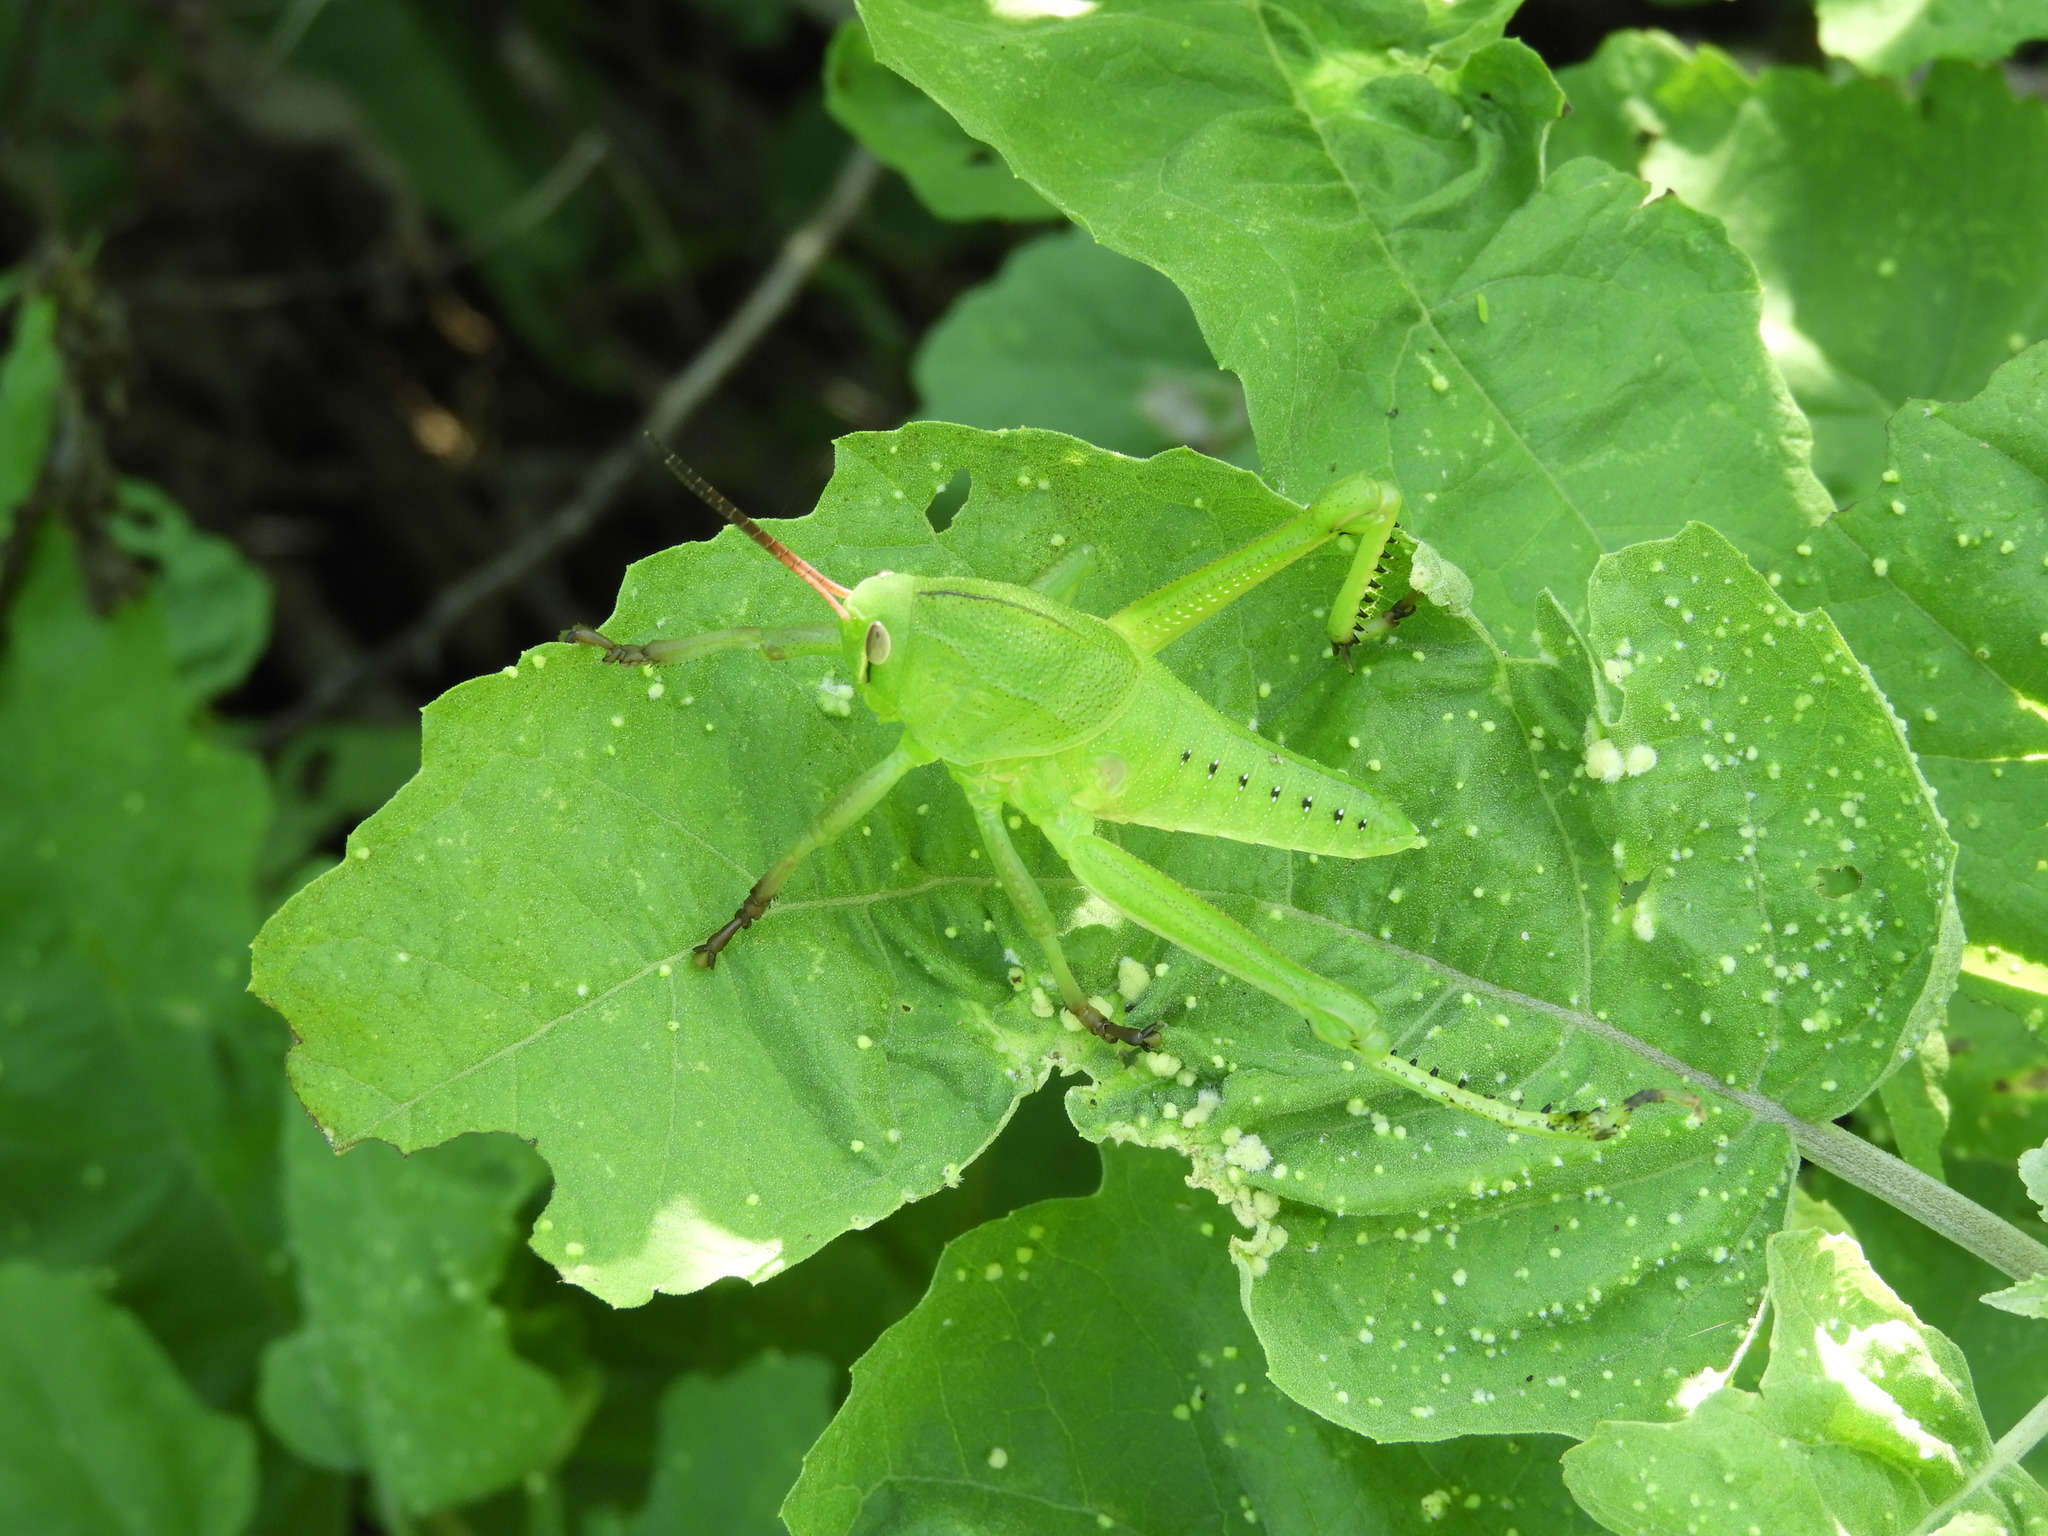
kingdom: Animalia
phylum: Arthropoda
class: Insecta
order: Orthoptera
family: Romaleidae
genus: Brachystola
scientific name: Brachystola
